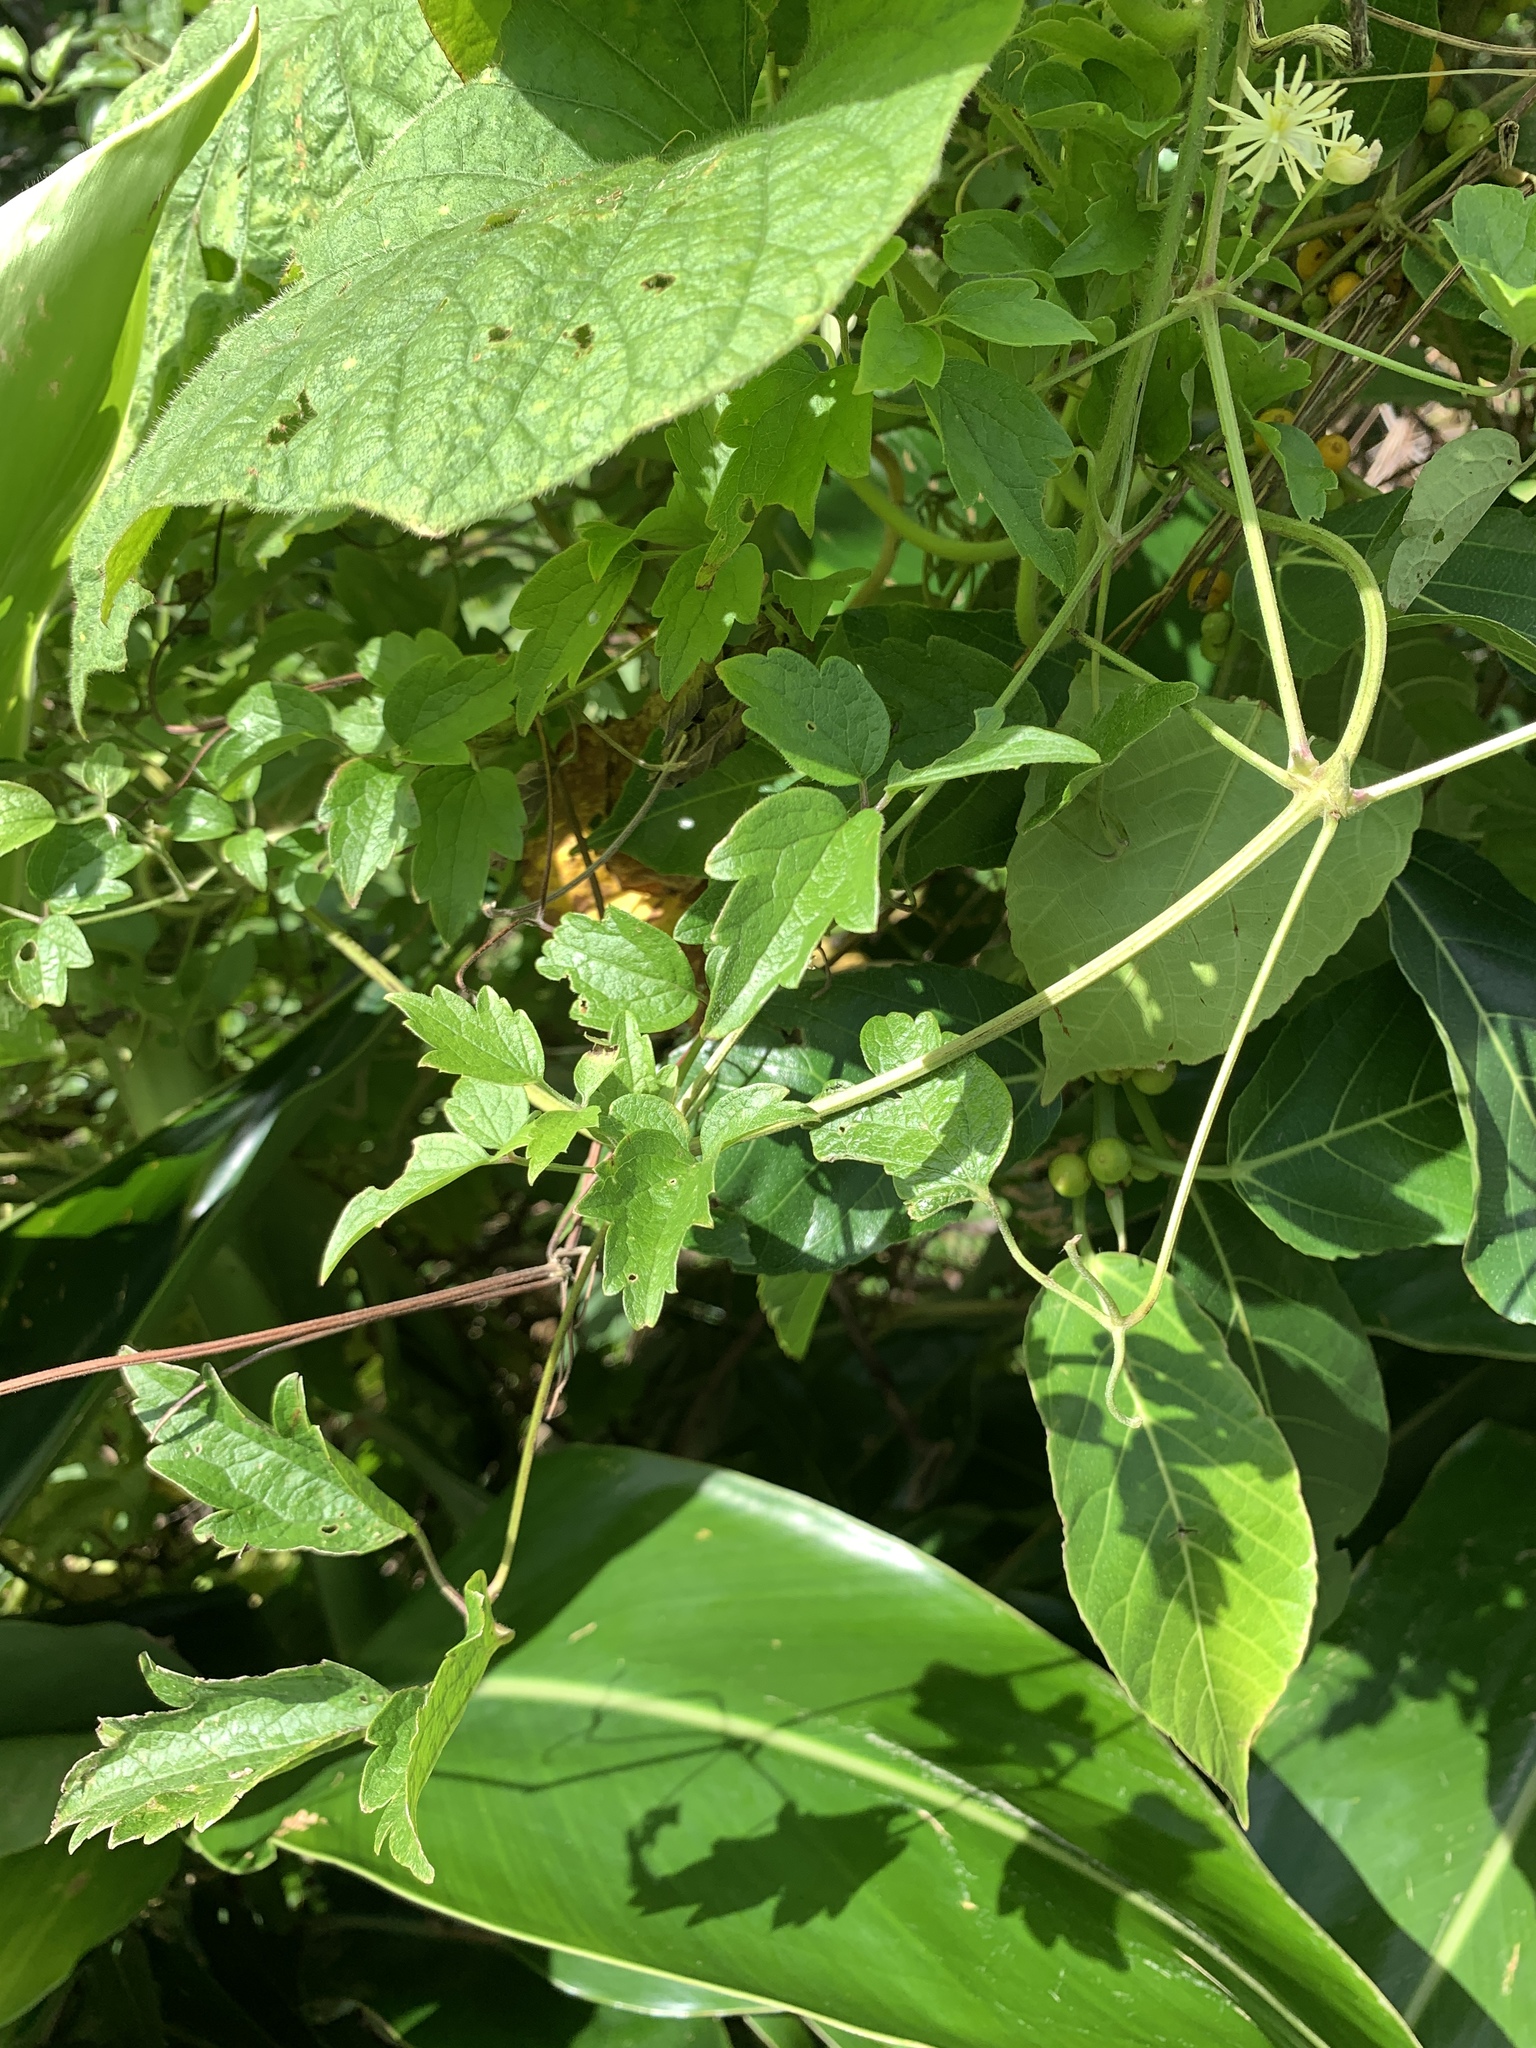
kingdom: Plantae
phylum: Tracheophyta
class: Magnoliopsida
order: Ranunculales
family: Ranunculaceae
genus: Clematis
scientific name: Clematis grata
